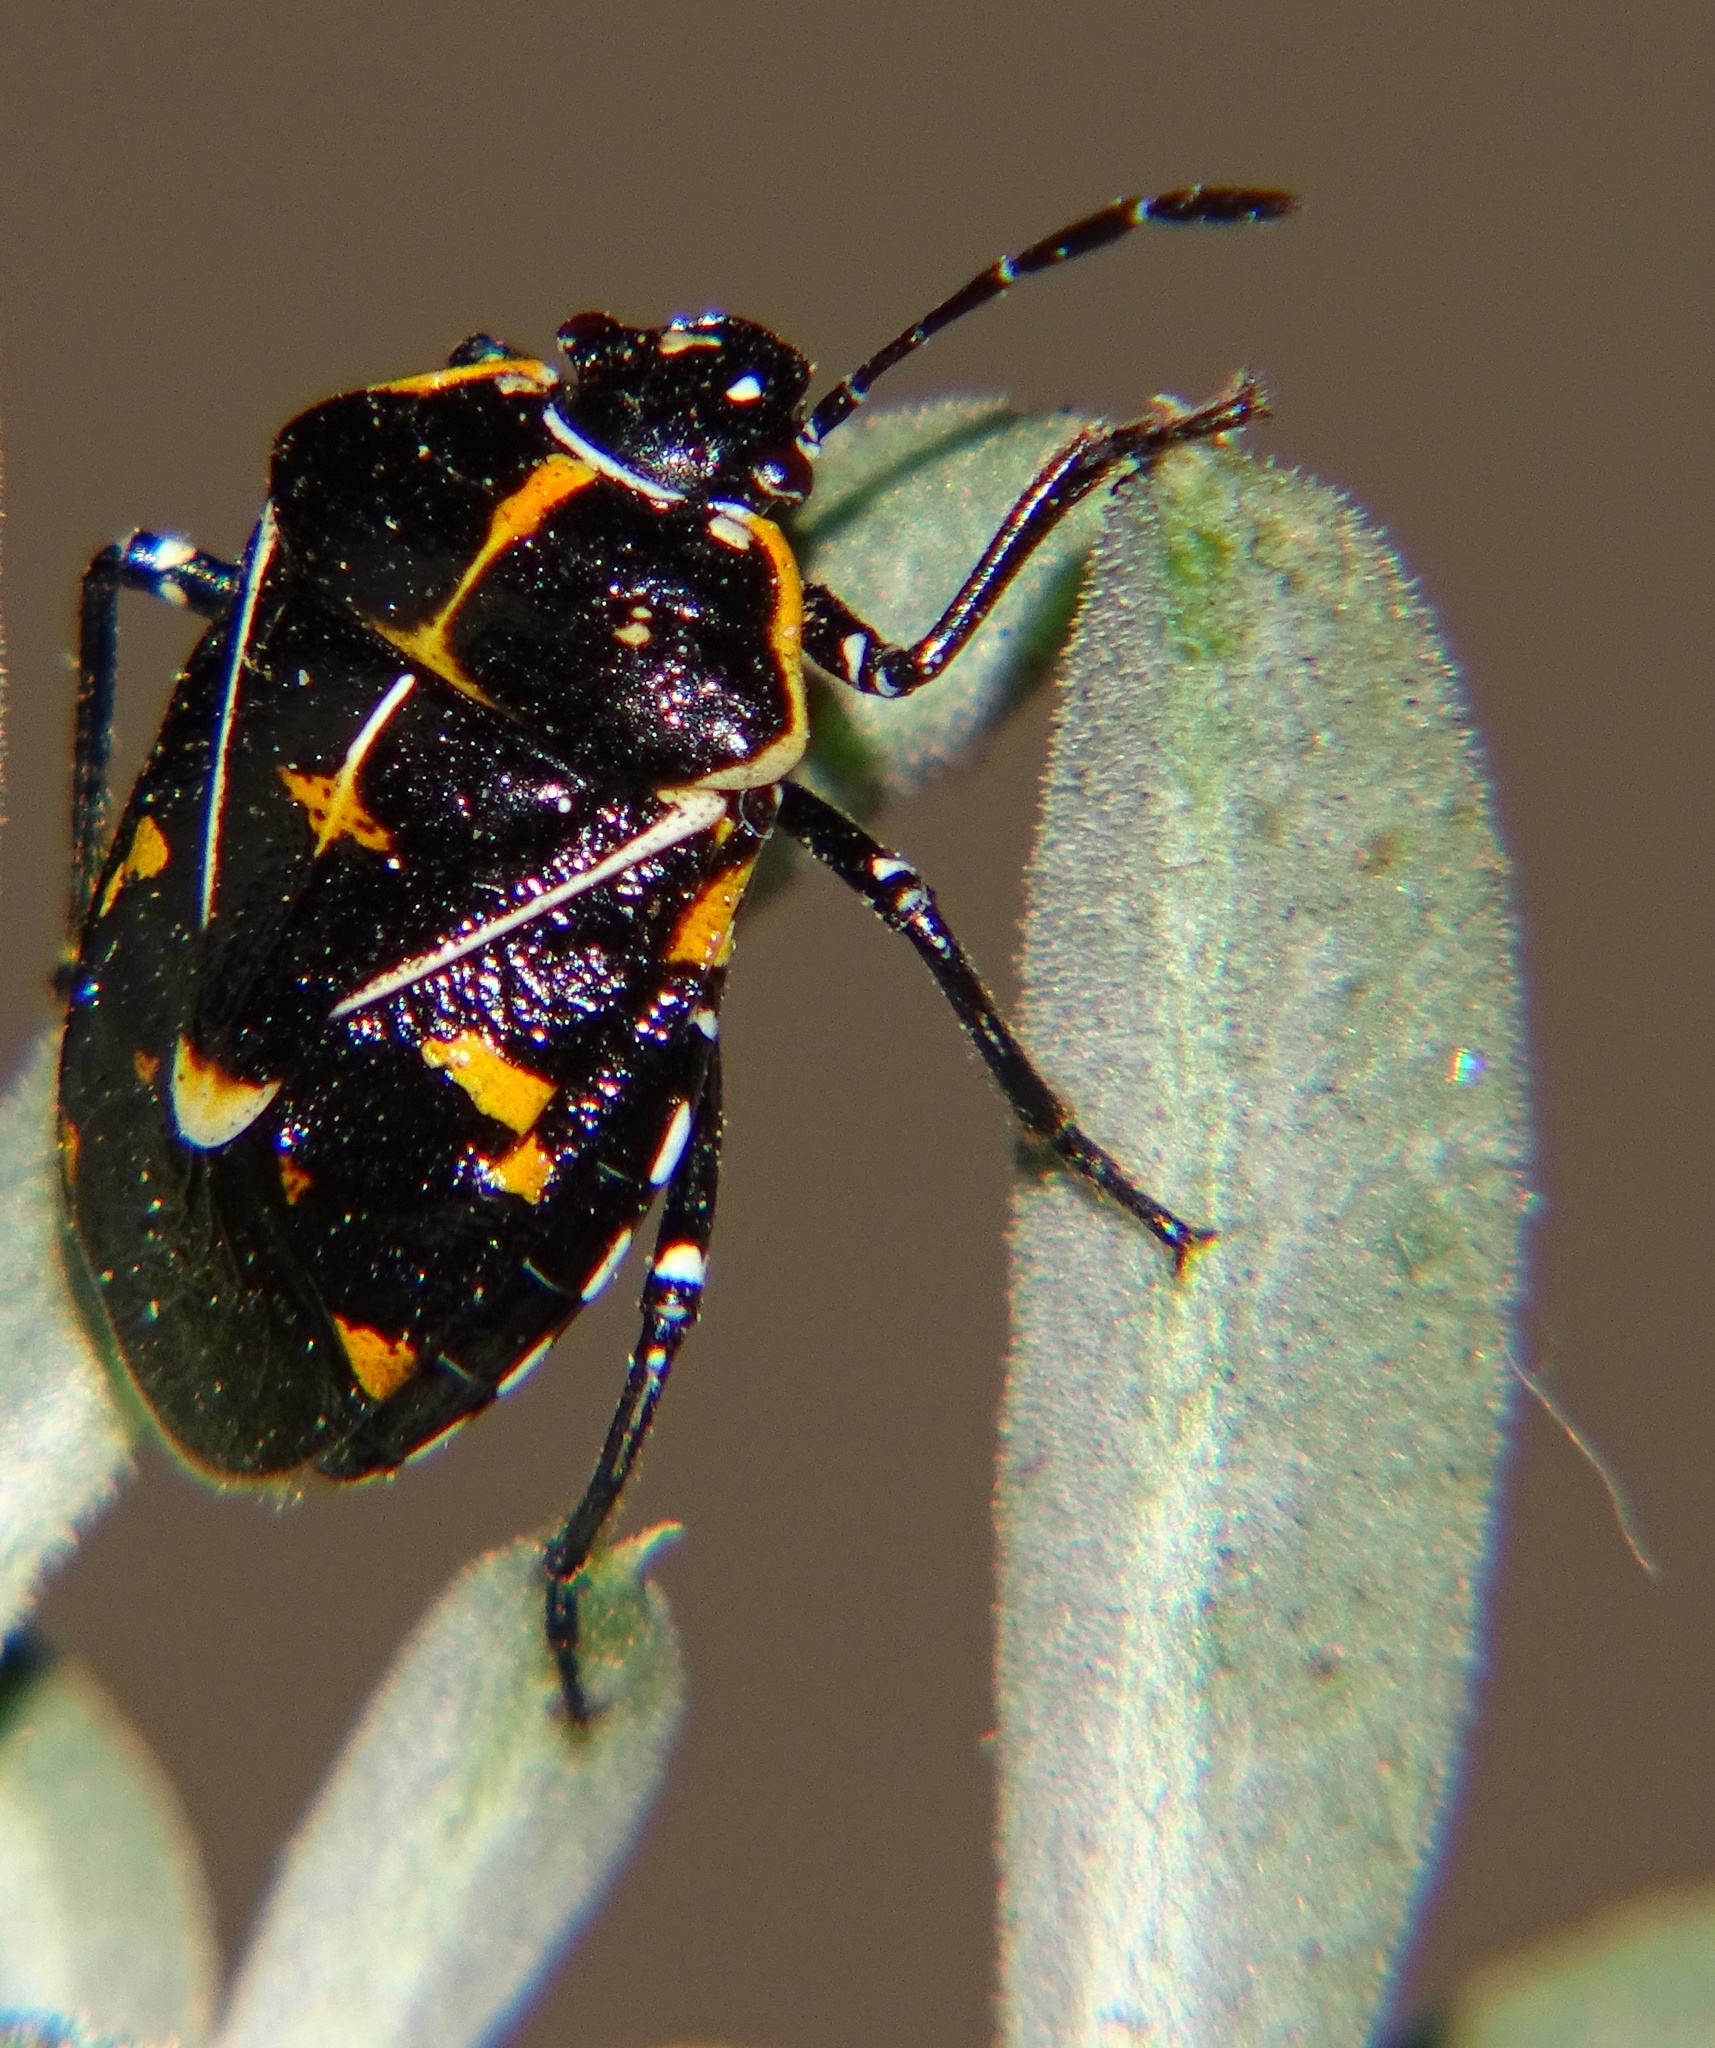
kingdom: Animalia
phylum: Arthropoda
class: Insecta
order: Hemiptera
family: Pentatomidae
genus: Murgantia
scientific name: Murgantia histrionica
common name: Harlequin bug
